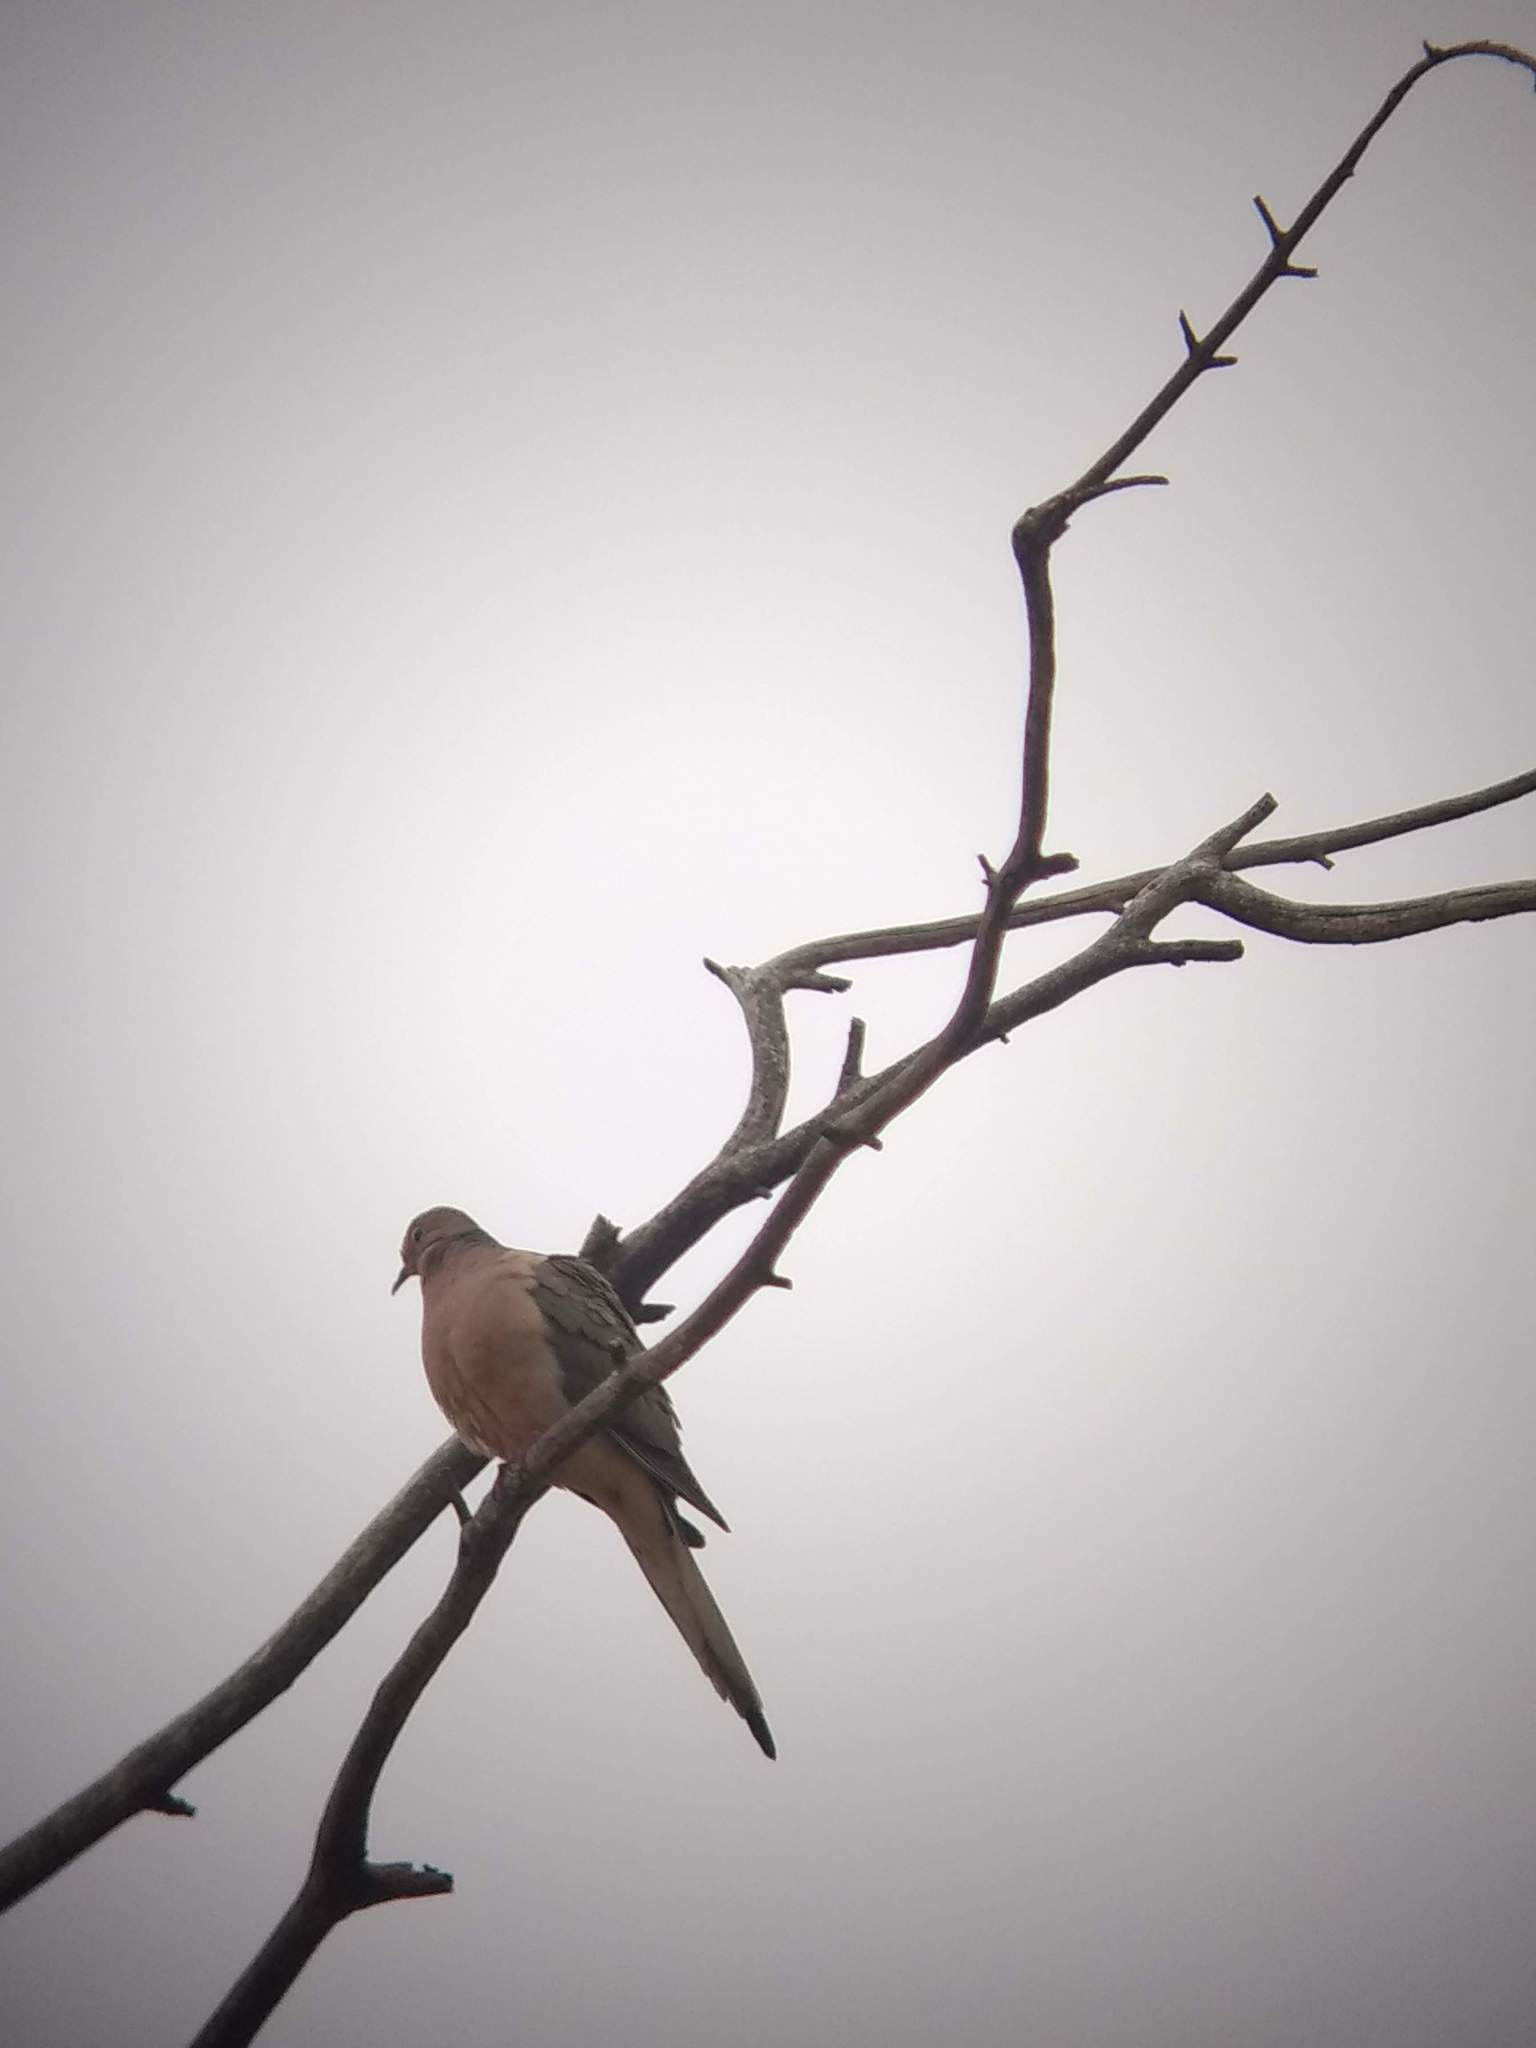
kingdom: Animalia
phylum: Chordata
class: Aves
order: Columbiformes
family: Columbidae
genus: Zenaida
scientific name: Zenaida macroura
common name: Mourning dove
